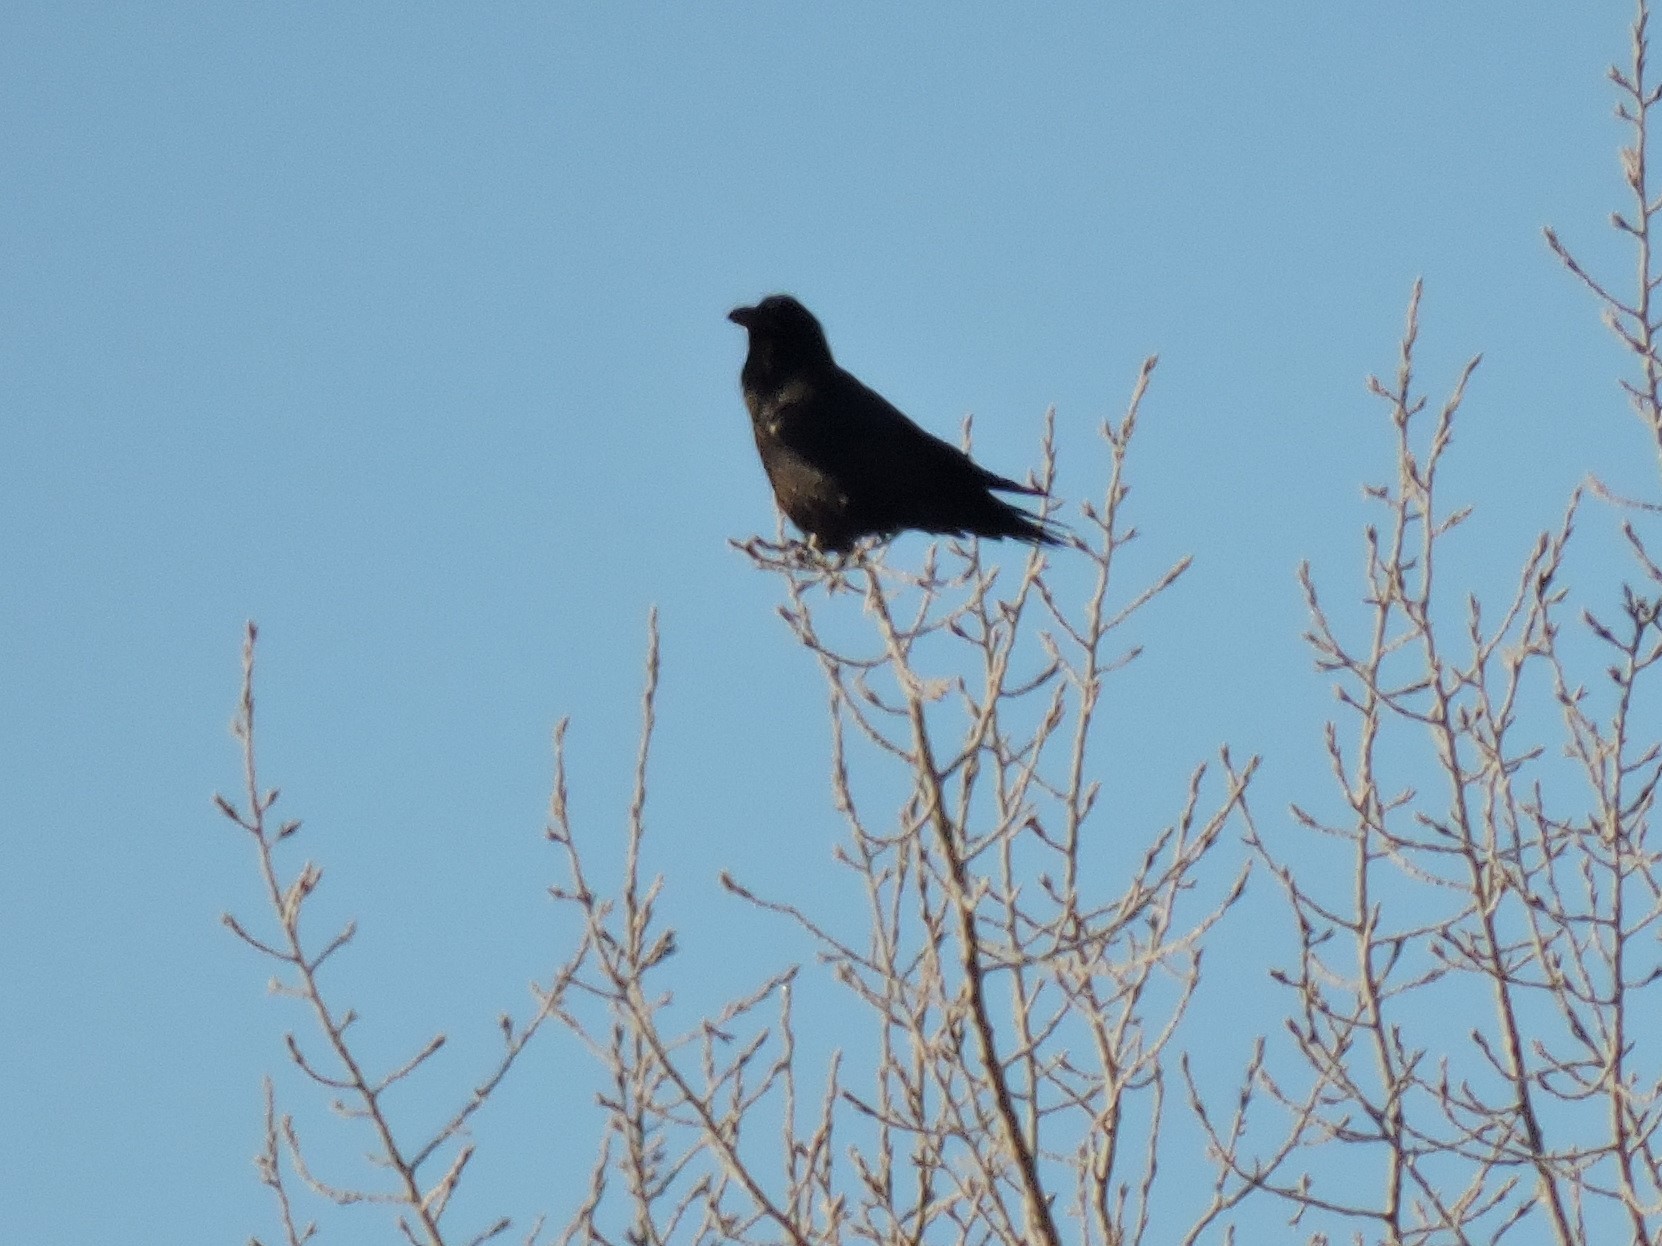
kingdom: Animalia
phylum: Chordata
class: Aves
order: Passeriformes
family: Corvidae
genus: Corvus
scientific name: Corvus corax
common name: Common raven
